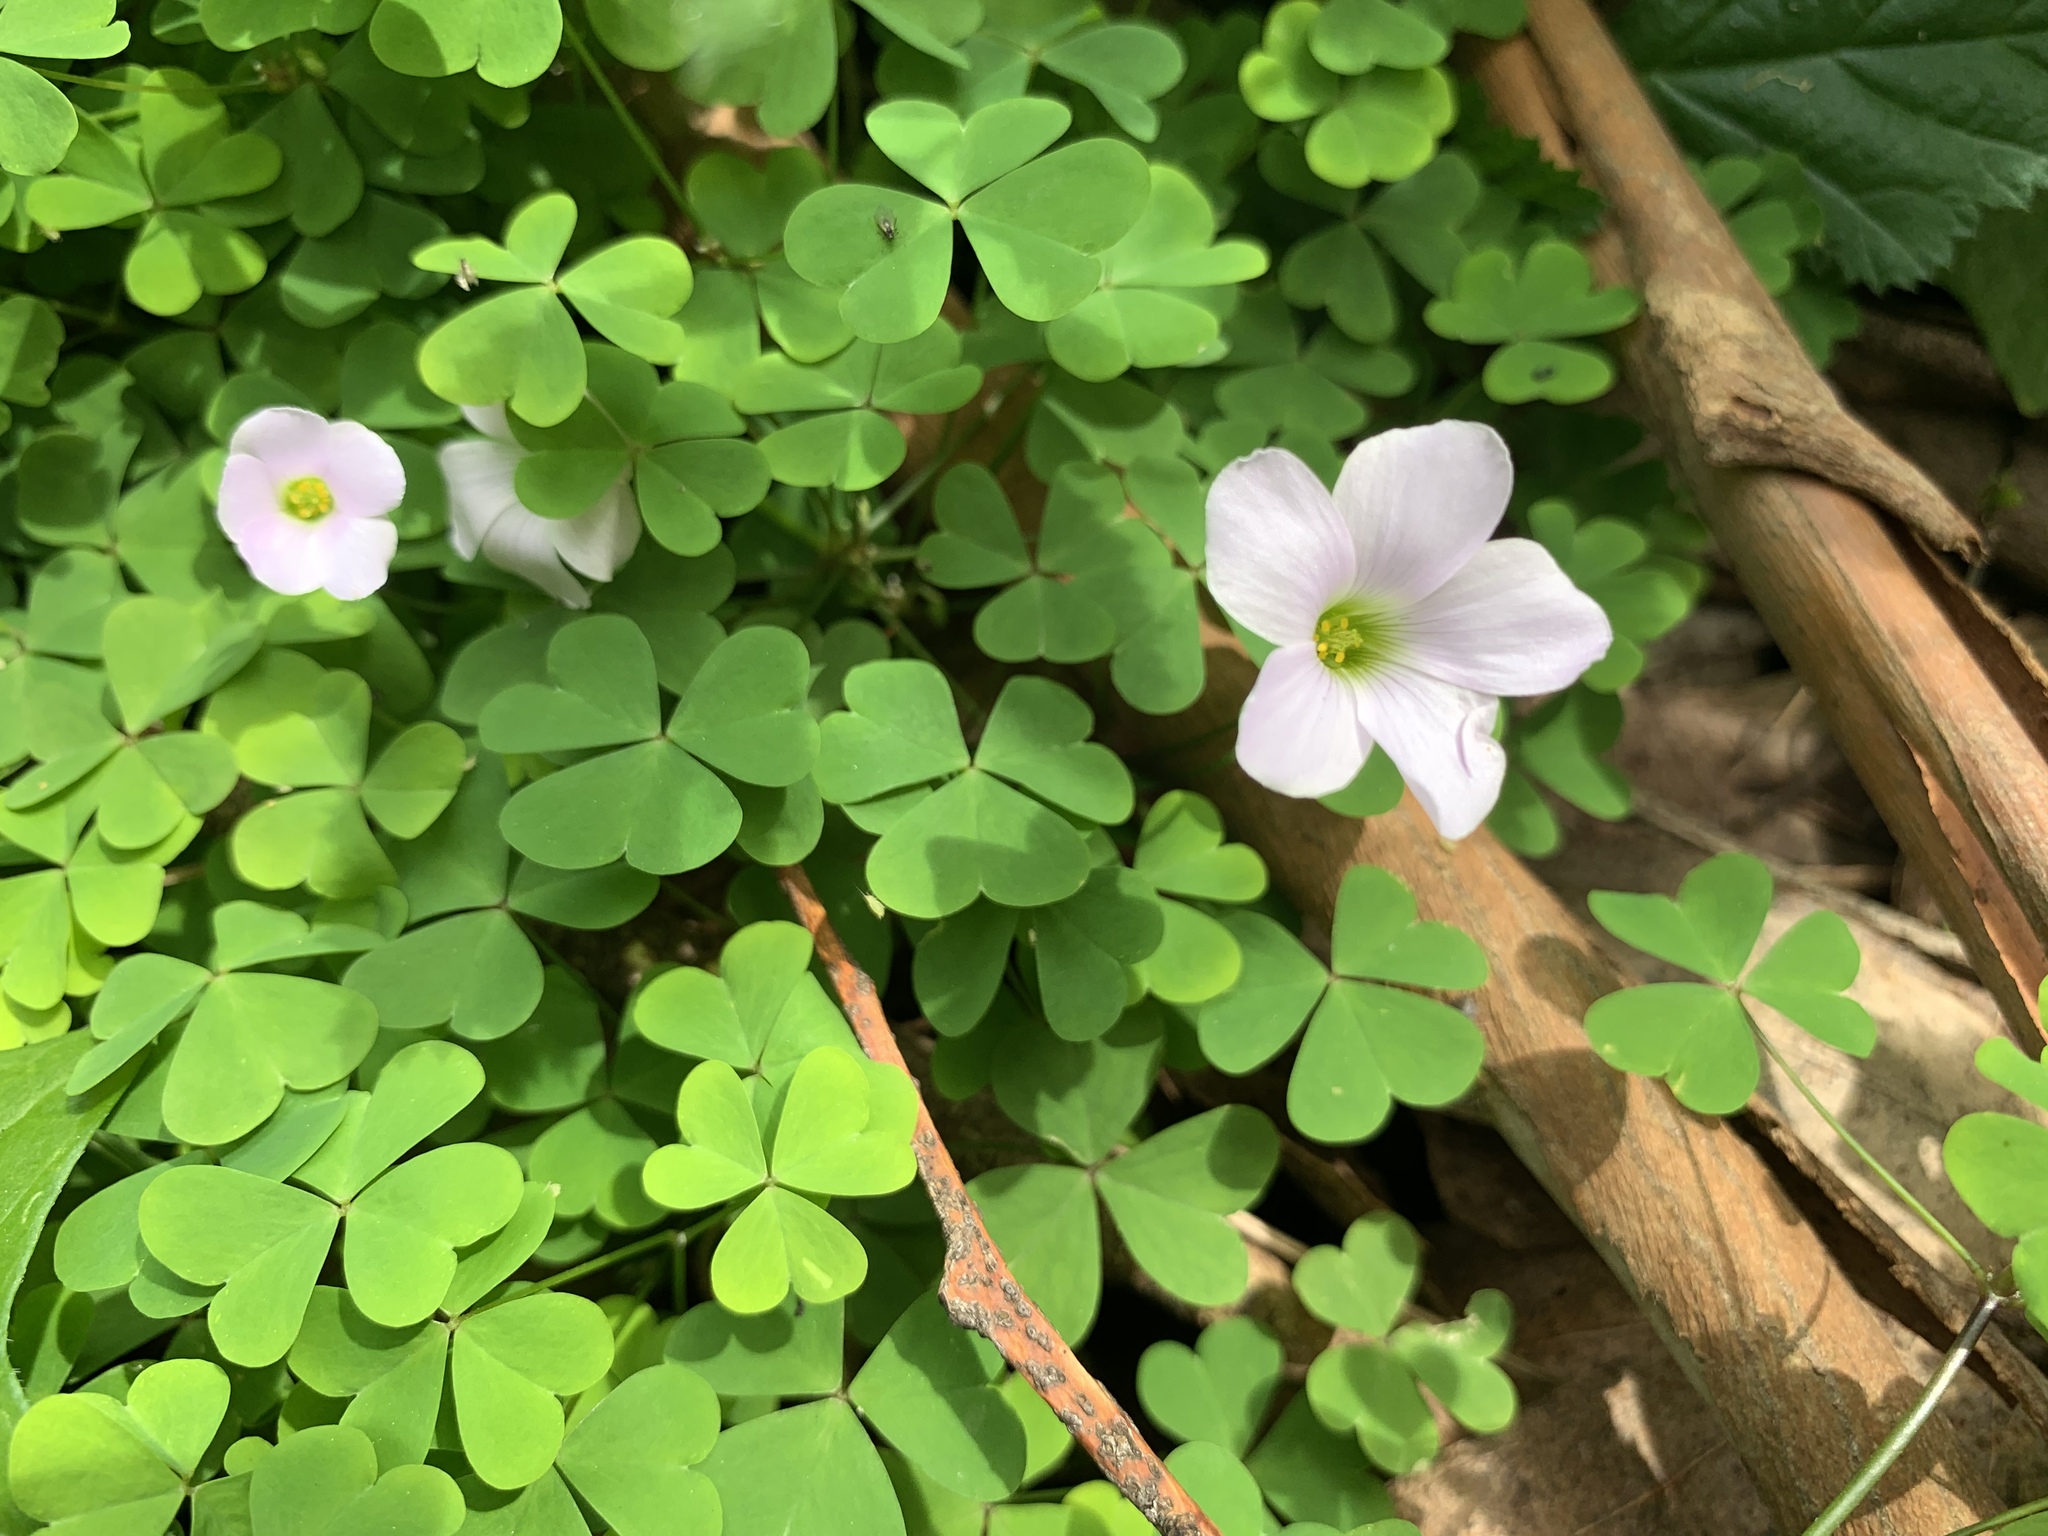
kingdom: Plantae
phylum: Tracheophyta
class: Magnoliopsida
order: Oxalidales
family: Oxalidaceae
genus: Oxalis
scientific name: Oxalis incarnata
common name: Pale pink-sorrel
